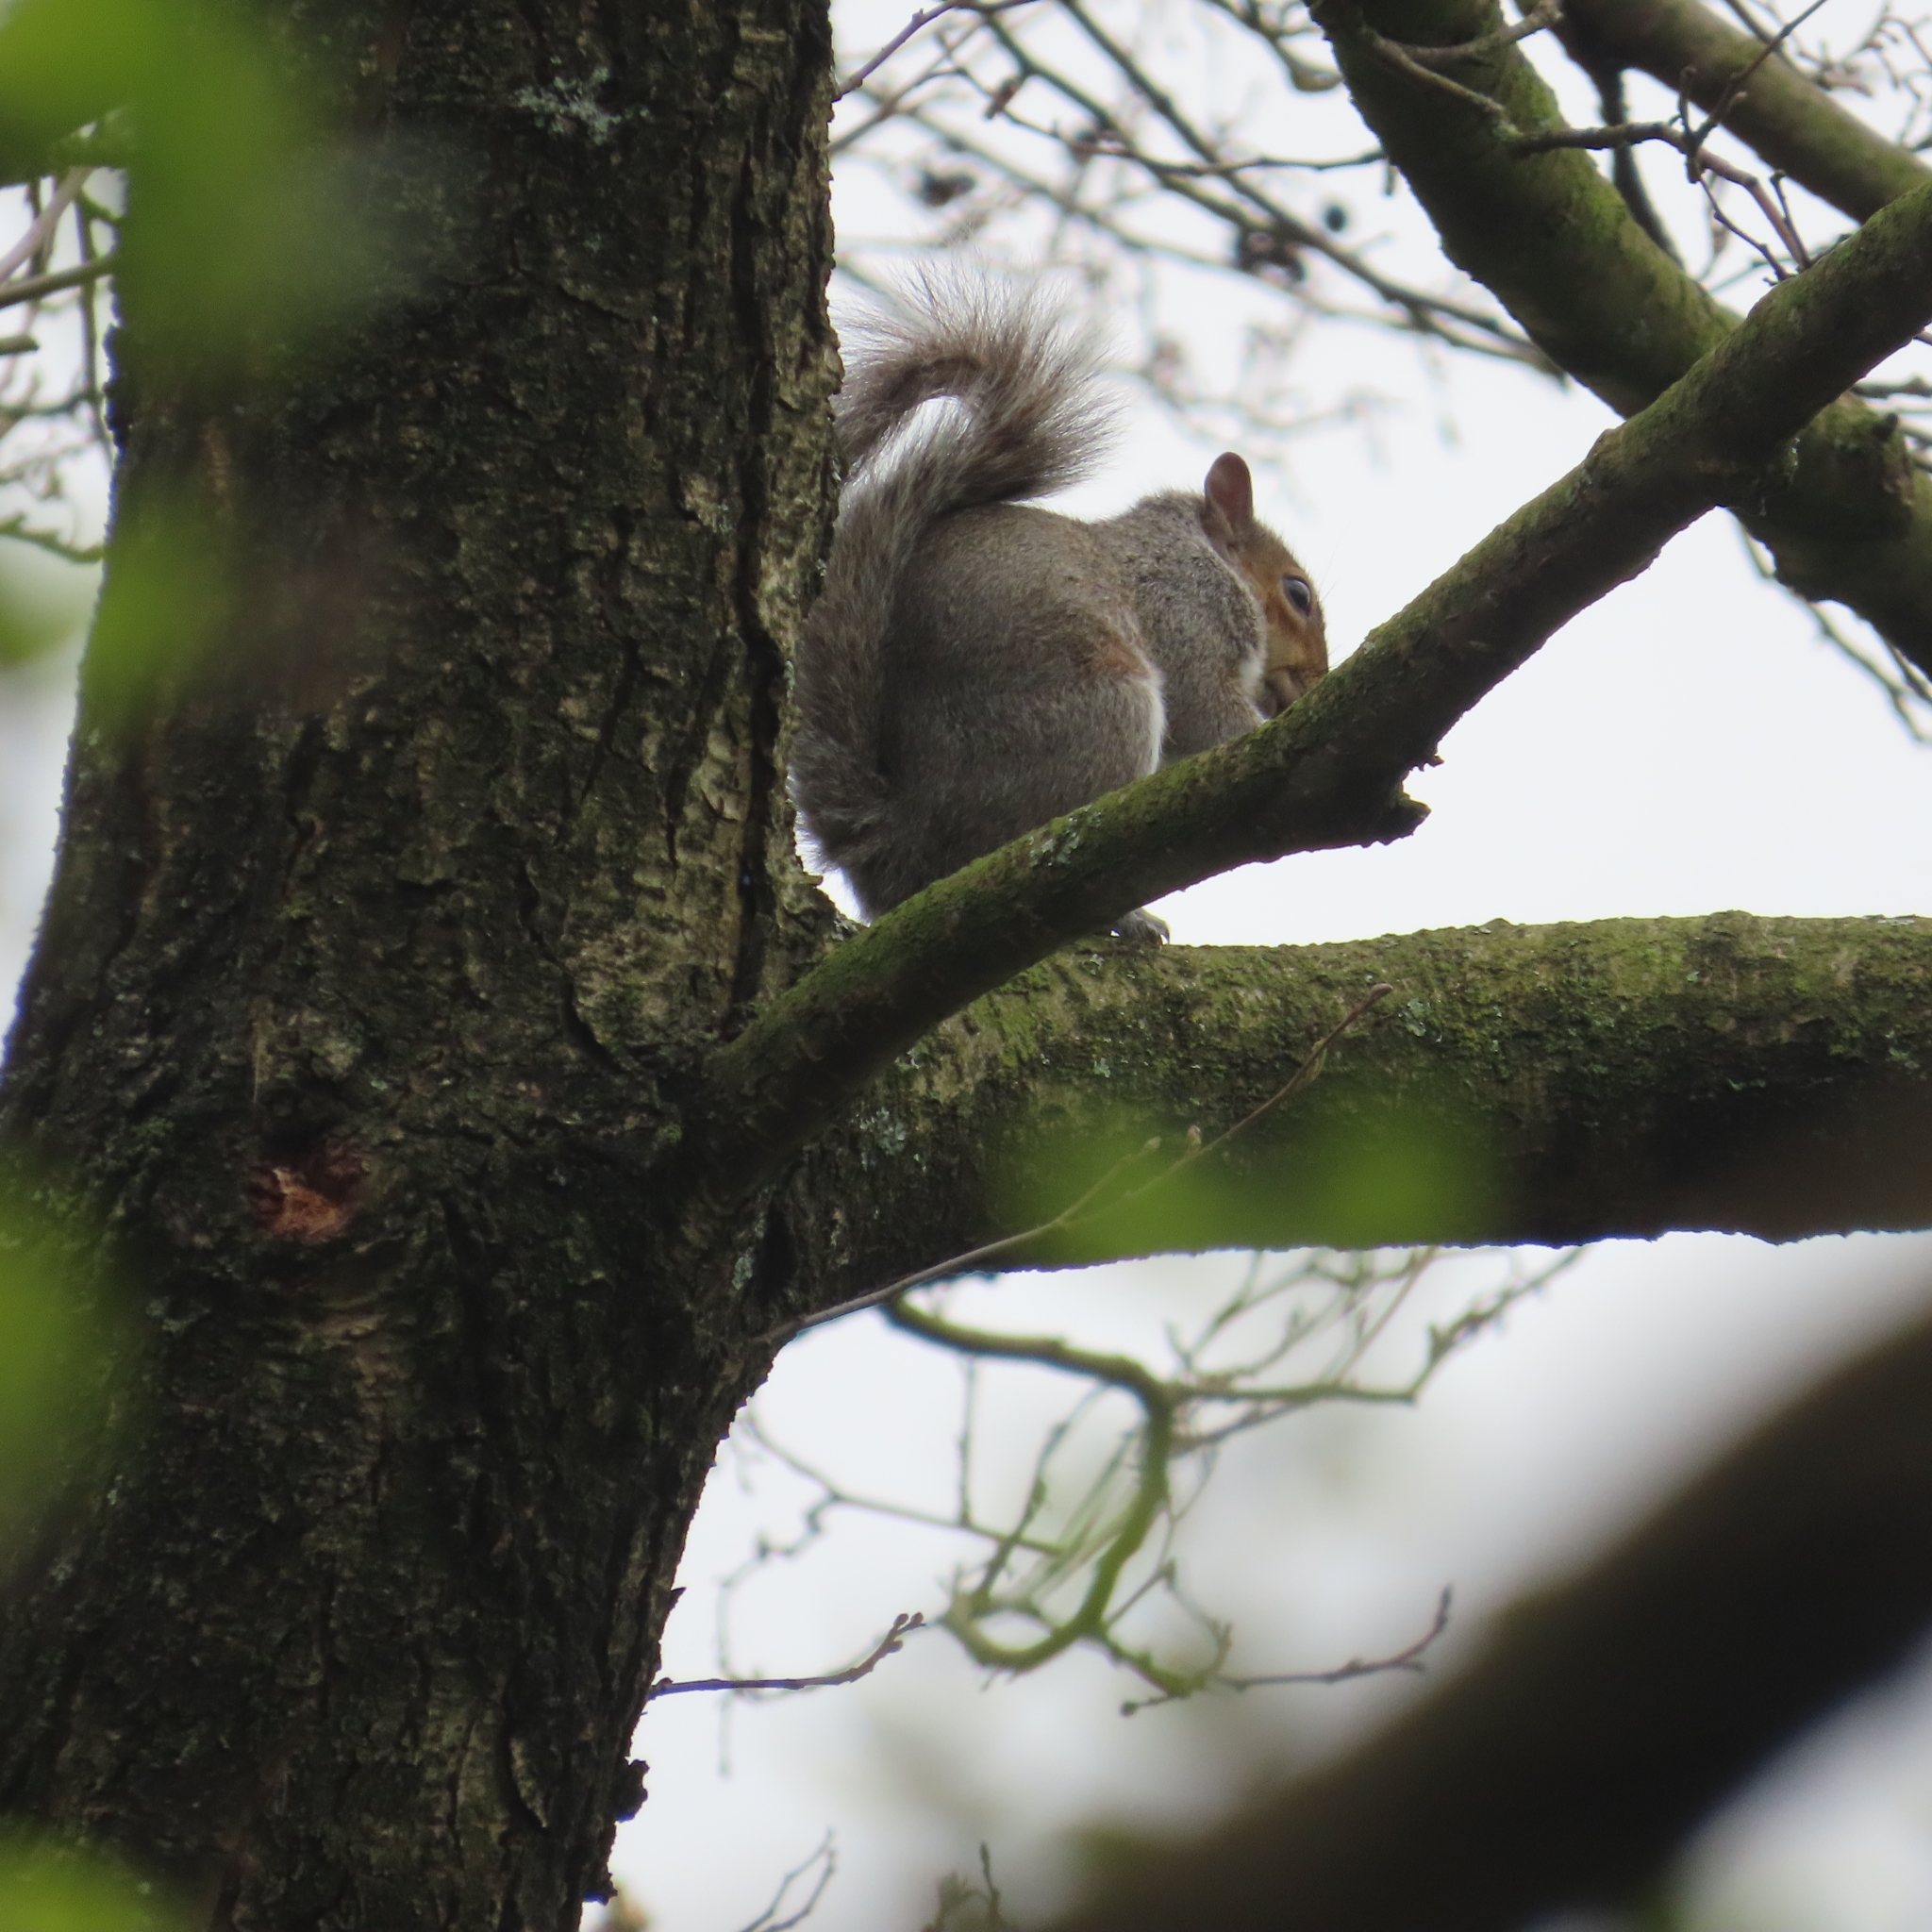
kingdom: Animalia
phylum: Chordata
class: Mammalia
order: Rodentia
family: Sciuridae
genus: Sciurus
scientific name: Sciurus carolinensis
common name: Eastern gray squirrel
